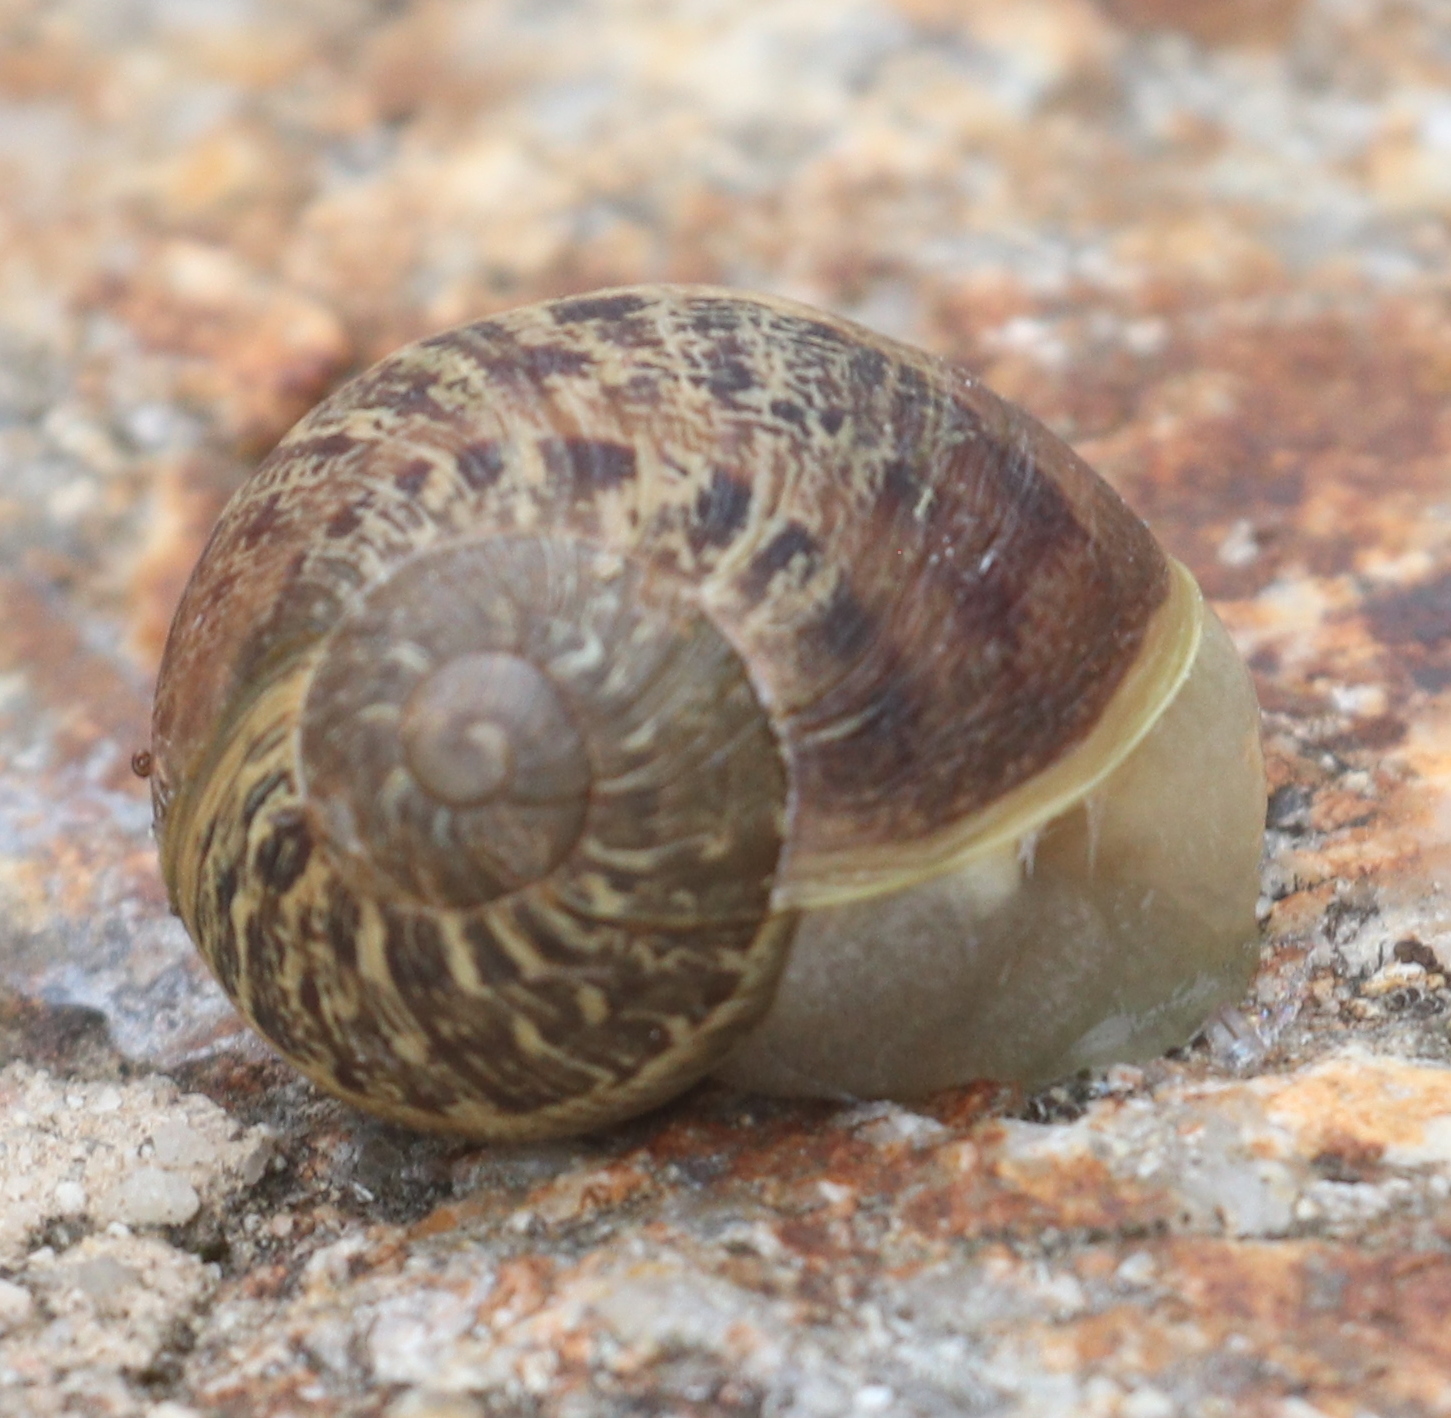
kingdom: Animalia
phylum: Mollusca
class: Gastropoda
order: Stylommatophora
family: Helicidae
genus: Cornu
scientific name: Cornu aspersum
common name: Brown garden snail
